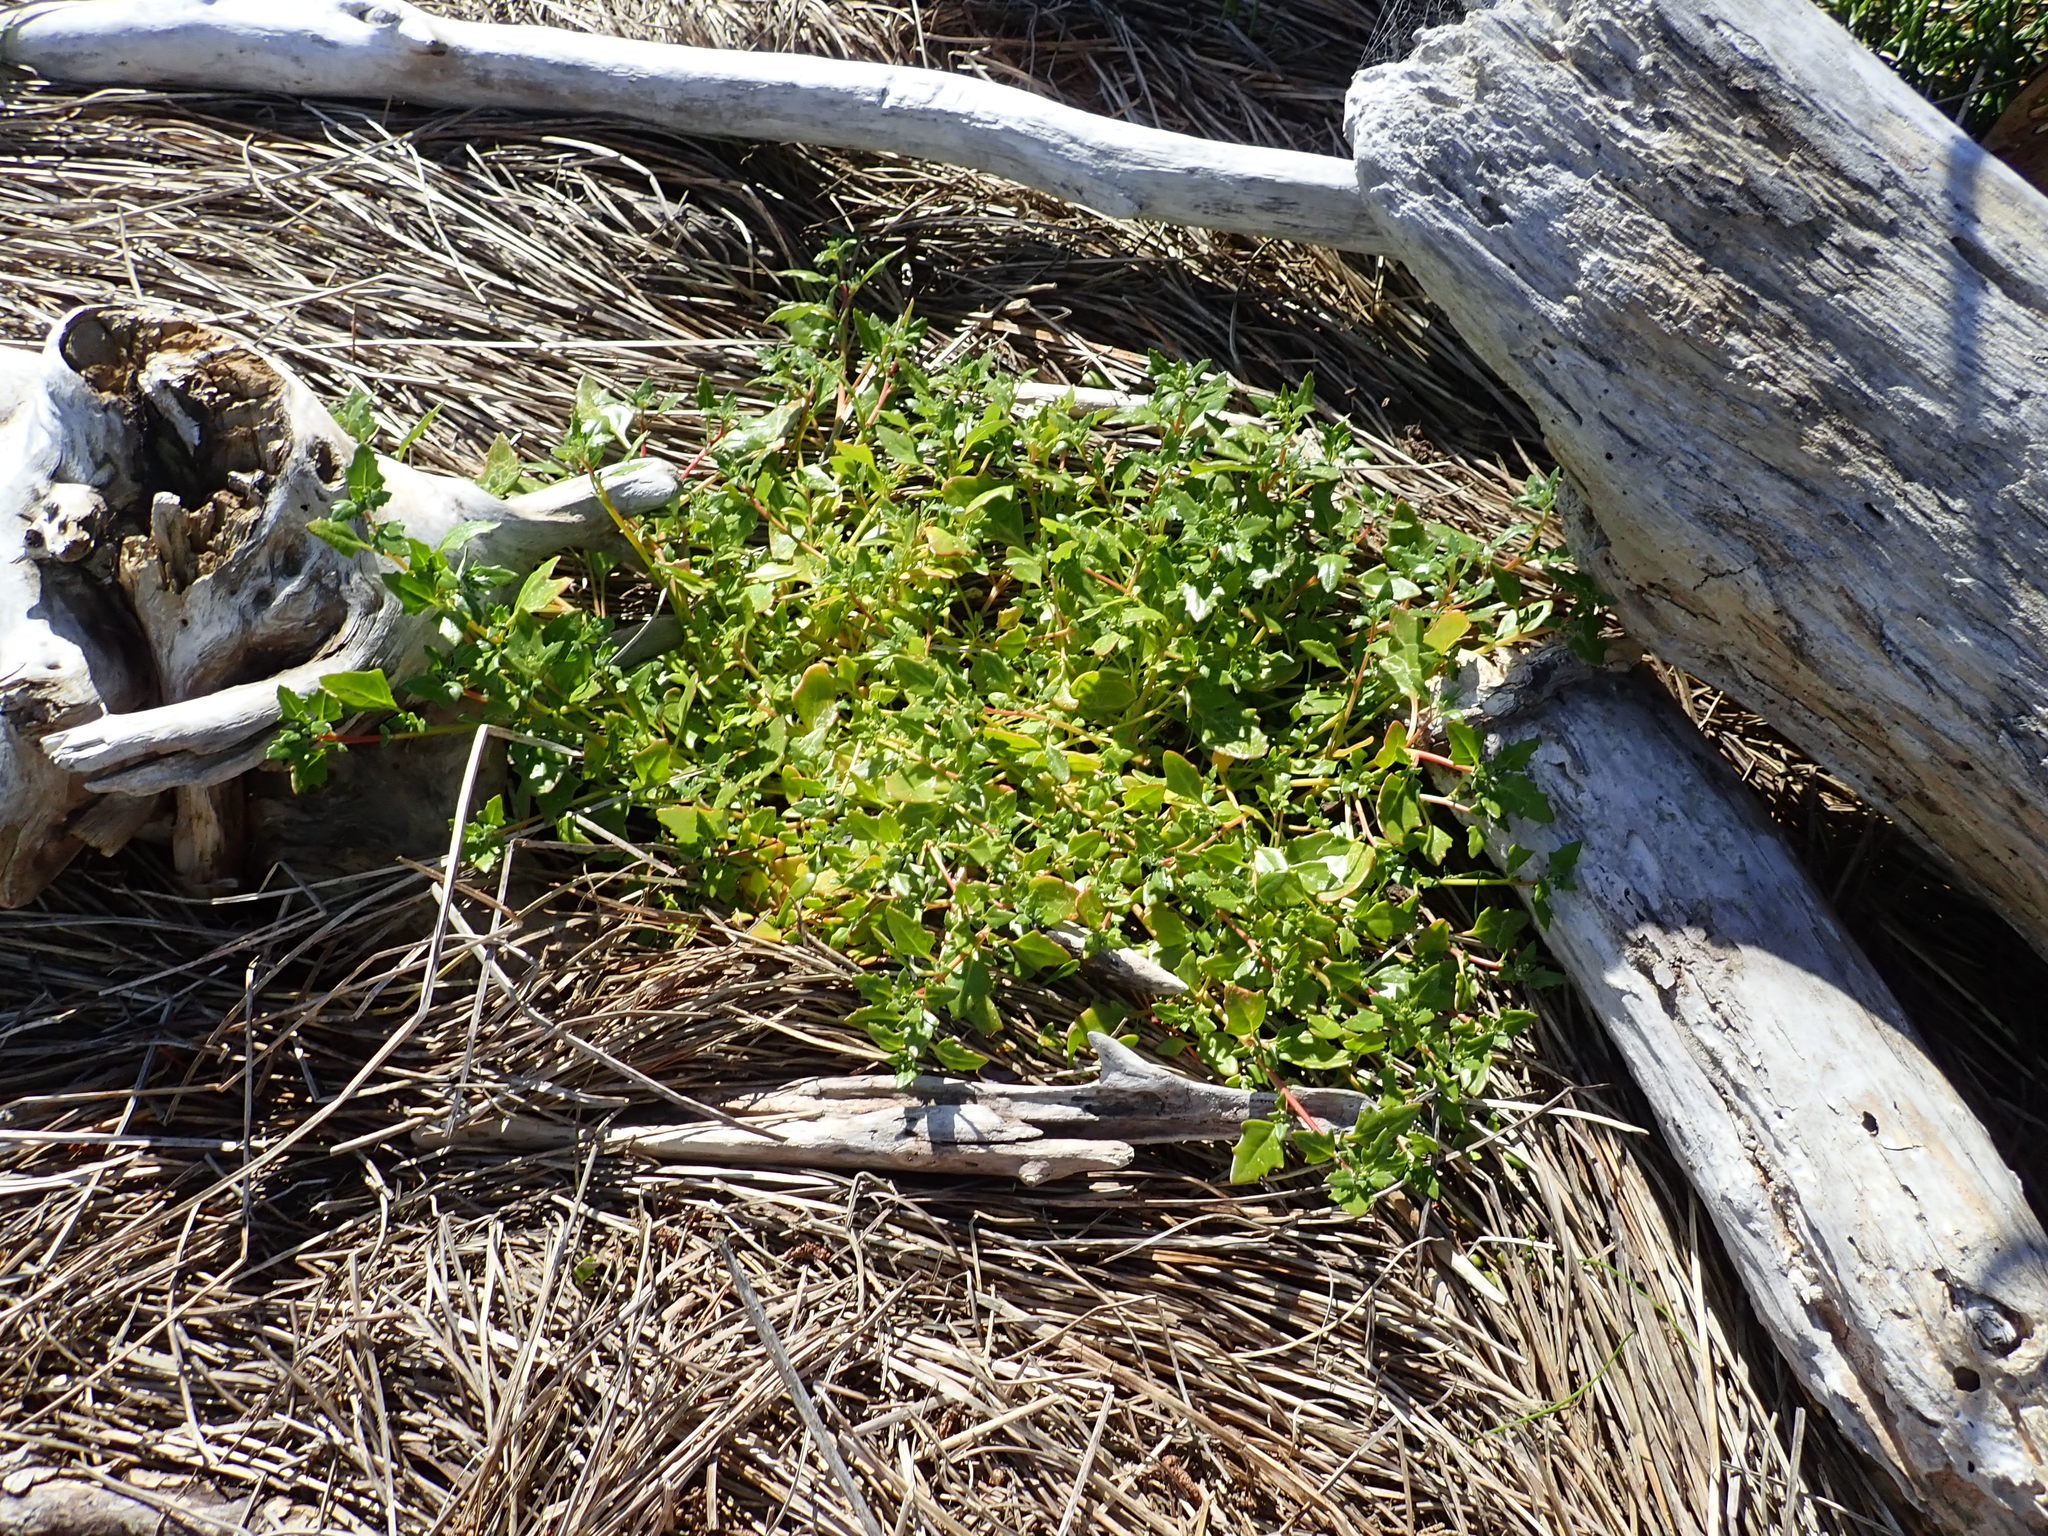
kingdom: Plantae
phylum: Tracheophyta
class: Magnoliopsida
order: Caryophyllales
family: Amaranthaceae
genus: Oxybasis
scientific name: Oxybasis ambigua
